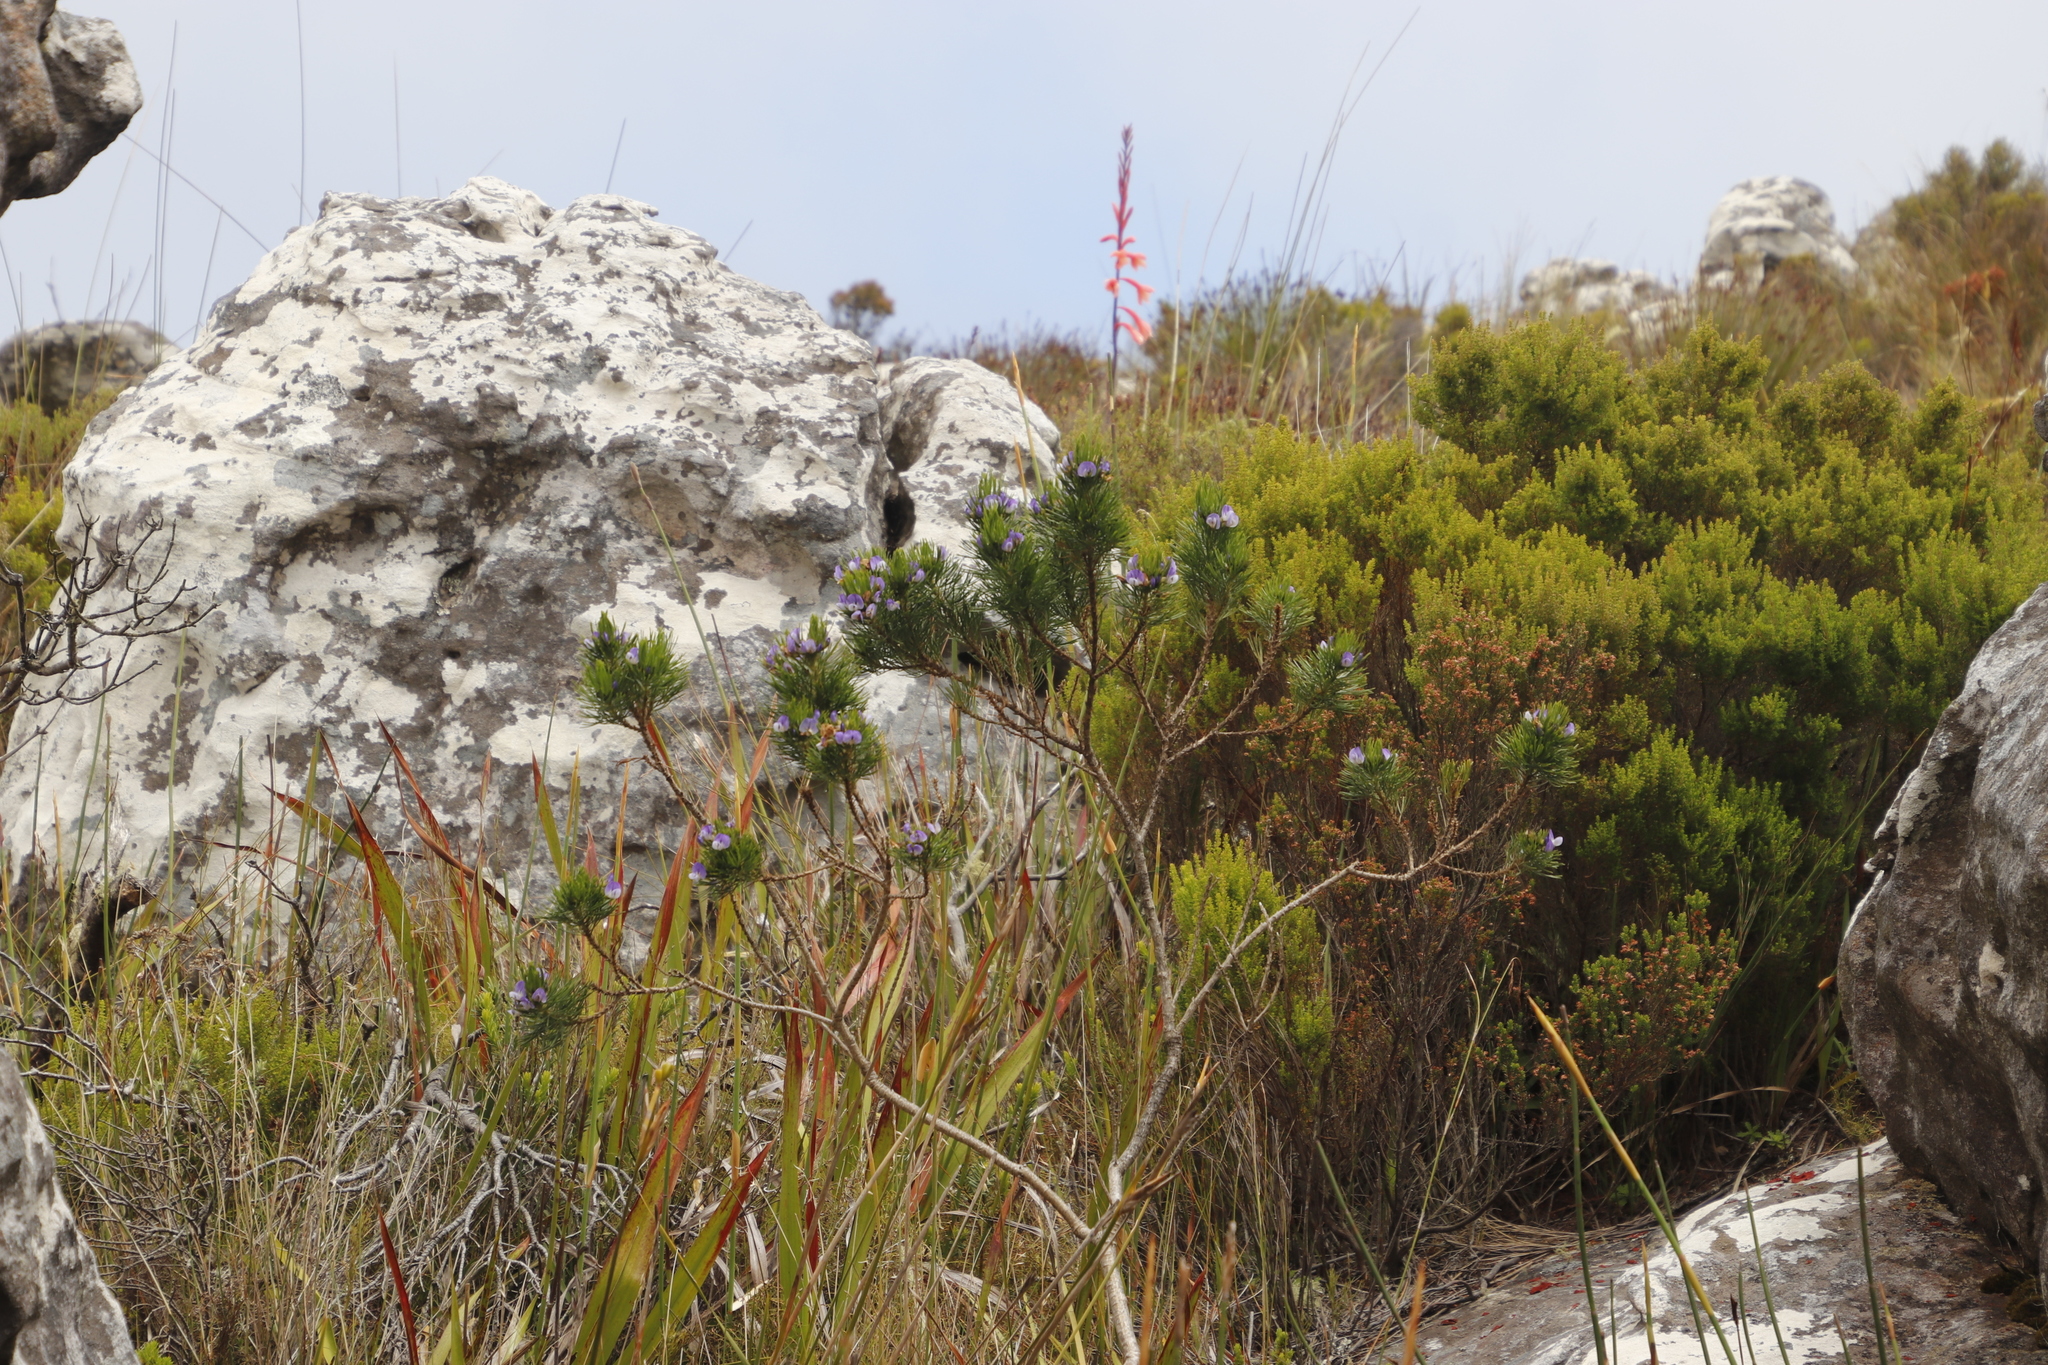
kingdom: Plantae
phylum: Tracheophyta
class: Magnoliopsida
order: Fabales
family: Fabaceae
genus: Psoralea
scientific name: Psoralea pinnata
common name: African scurfpea
